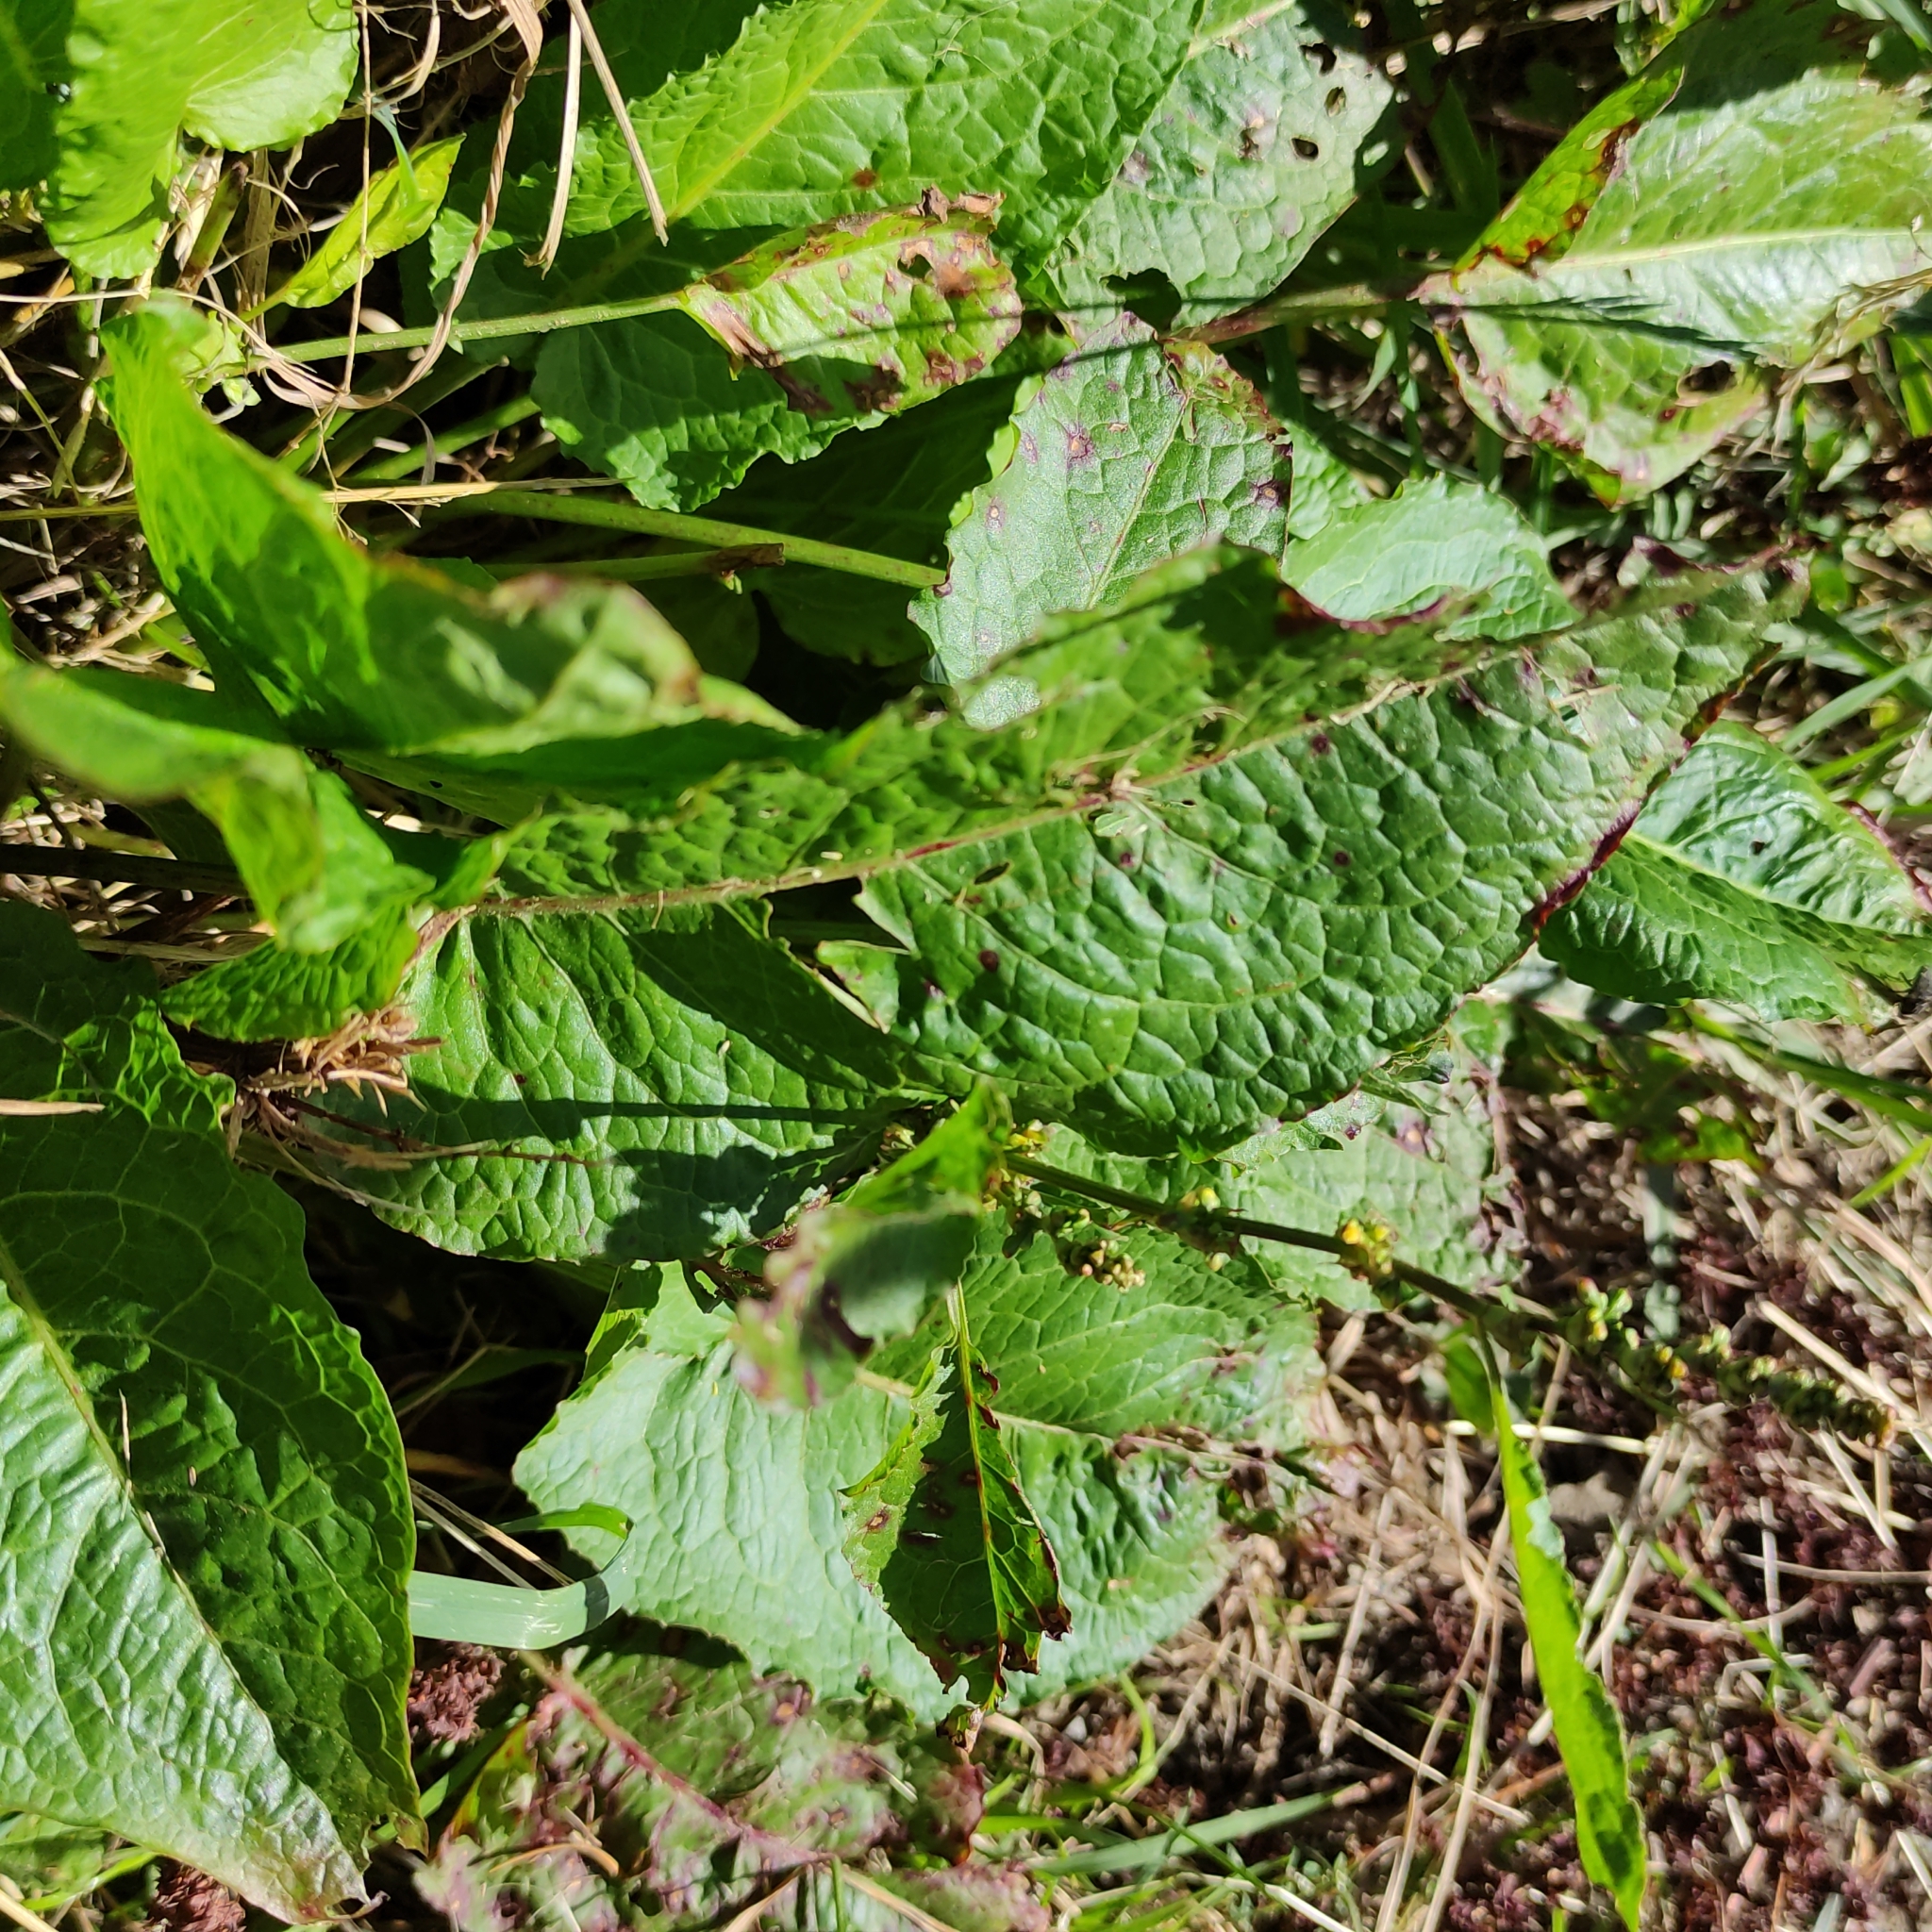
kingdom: Plantae
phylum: Tracheophyta
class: Magnoliopsida
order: Caryophyllales
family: Polygonaceae
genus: Rumex
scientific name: Rumex obtusifolius
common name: Bitter dock
